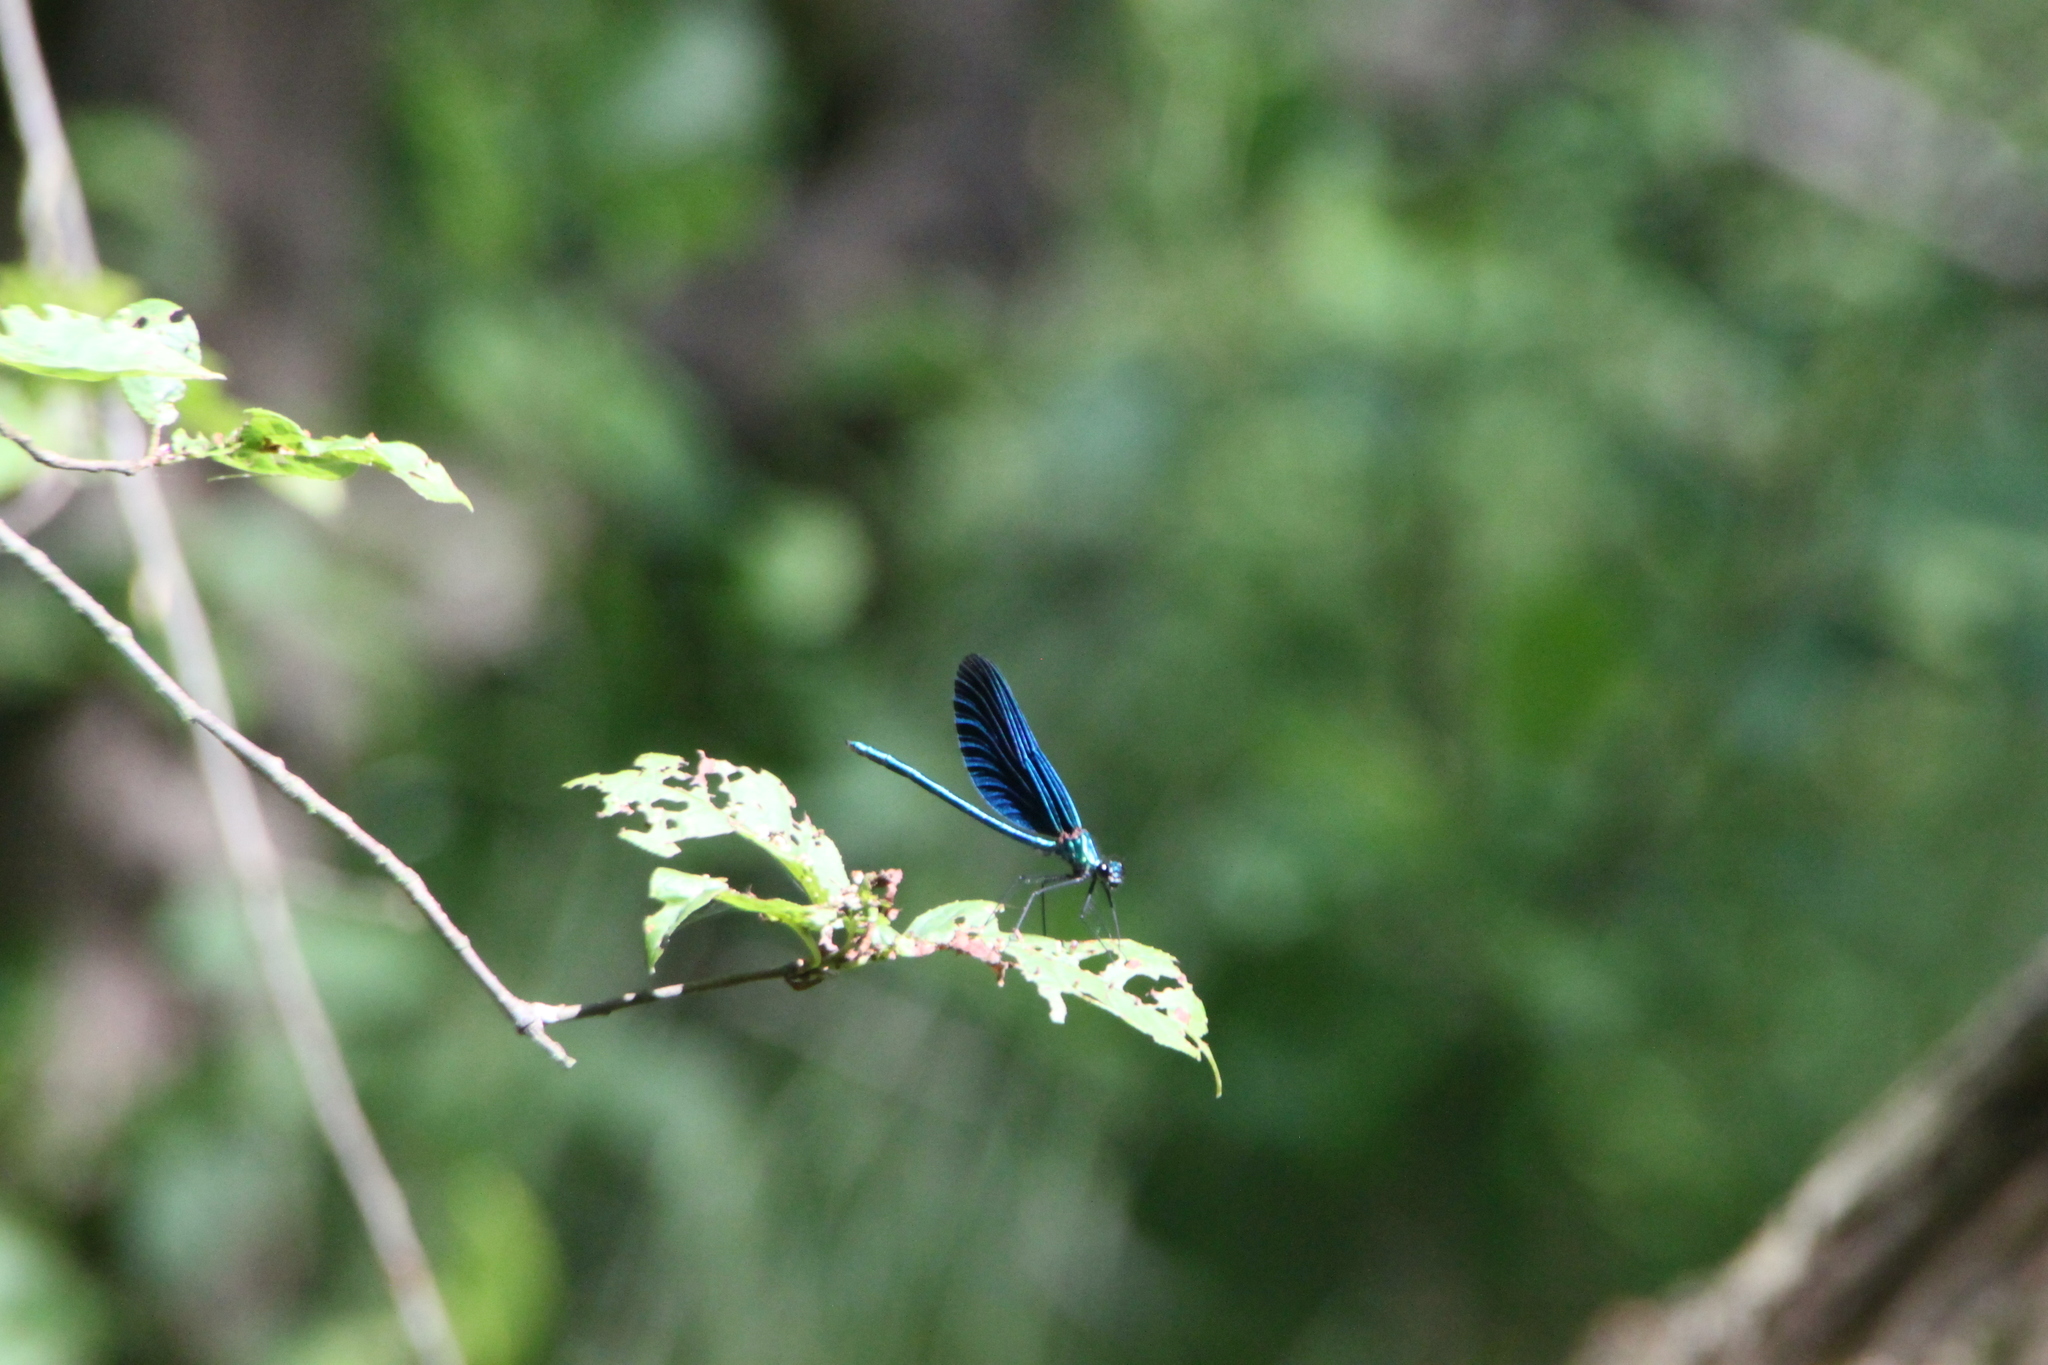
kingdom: Animalia
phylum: Arthropoda
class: Insecta
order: Odonata
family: Calopterygidae
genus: Calopteryx
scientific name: Calopteryx virgo
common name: Beautiful demoiselle
